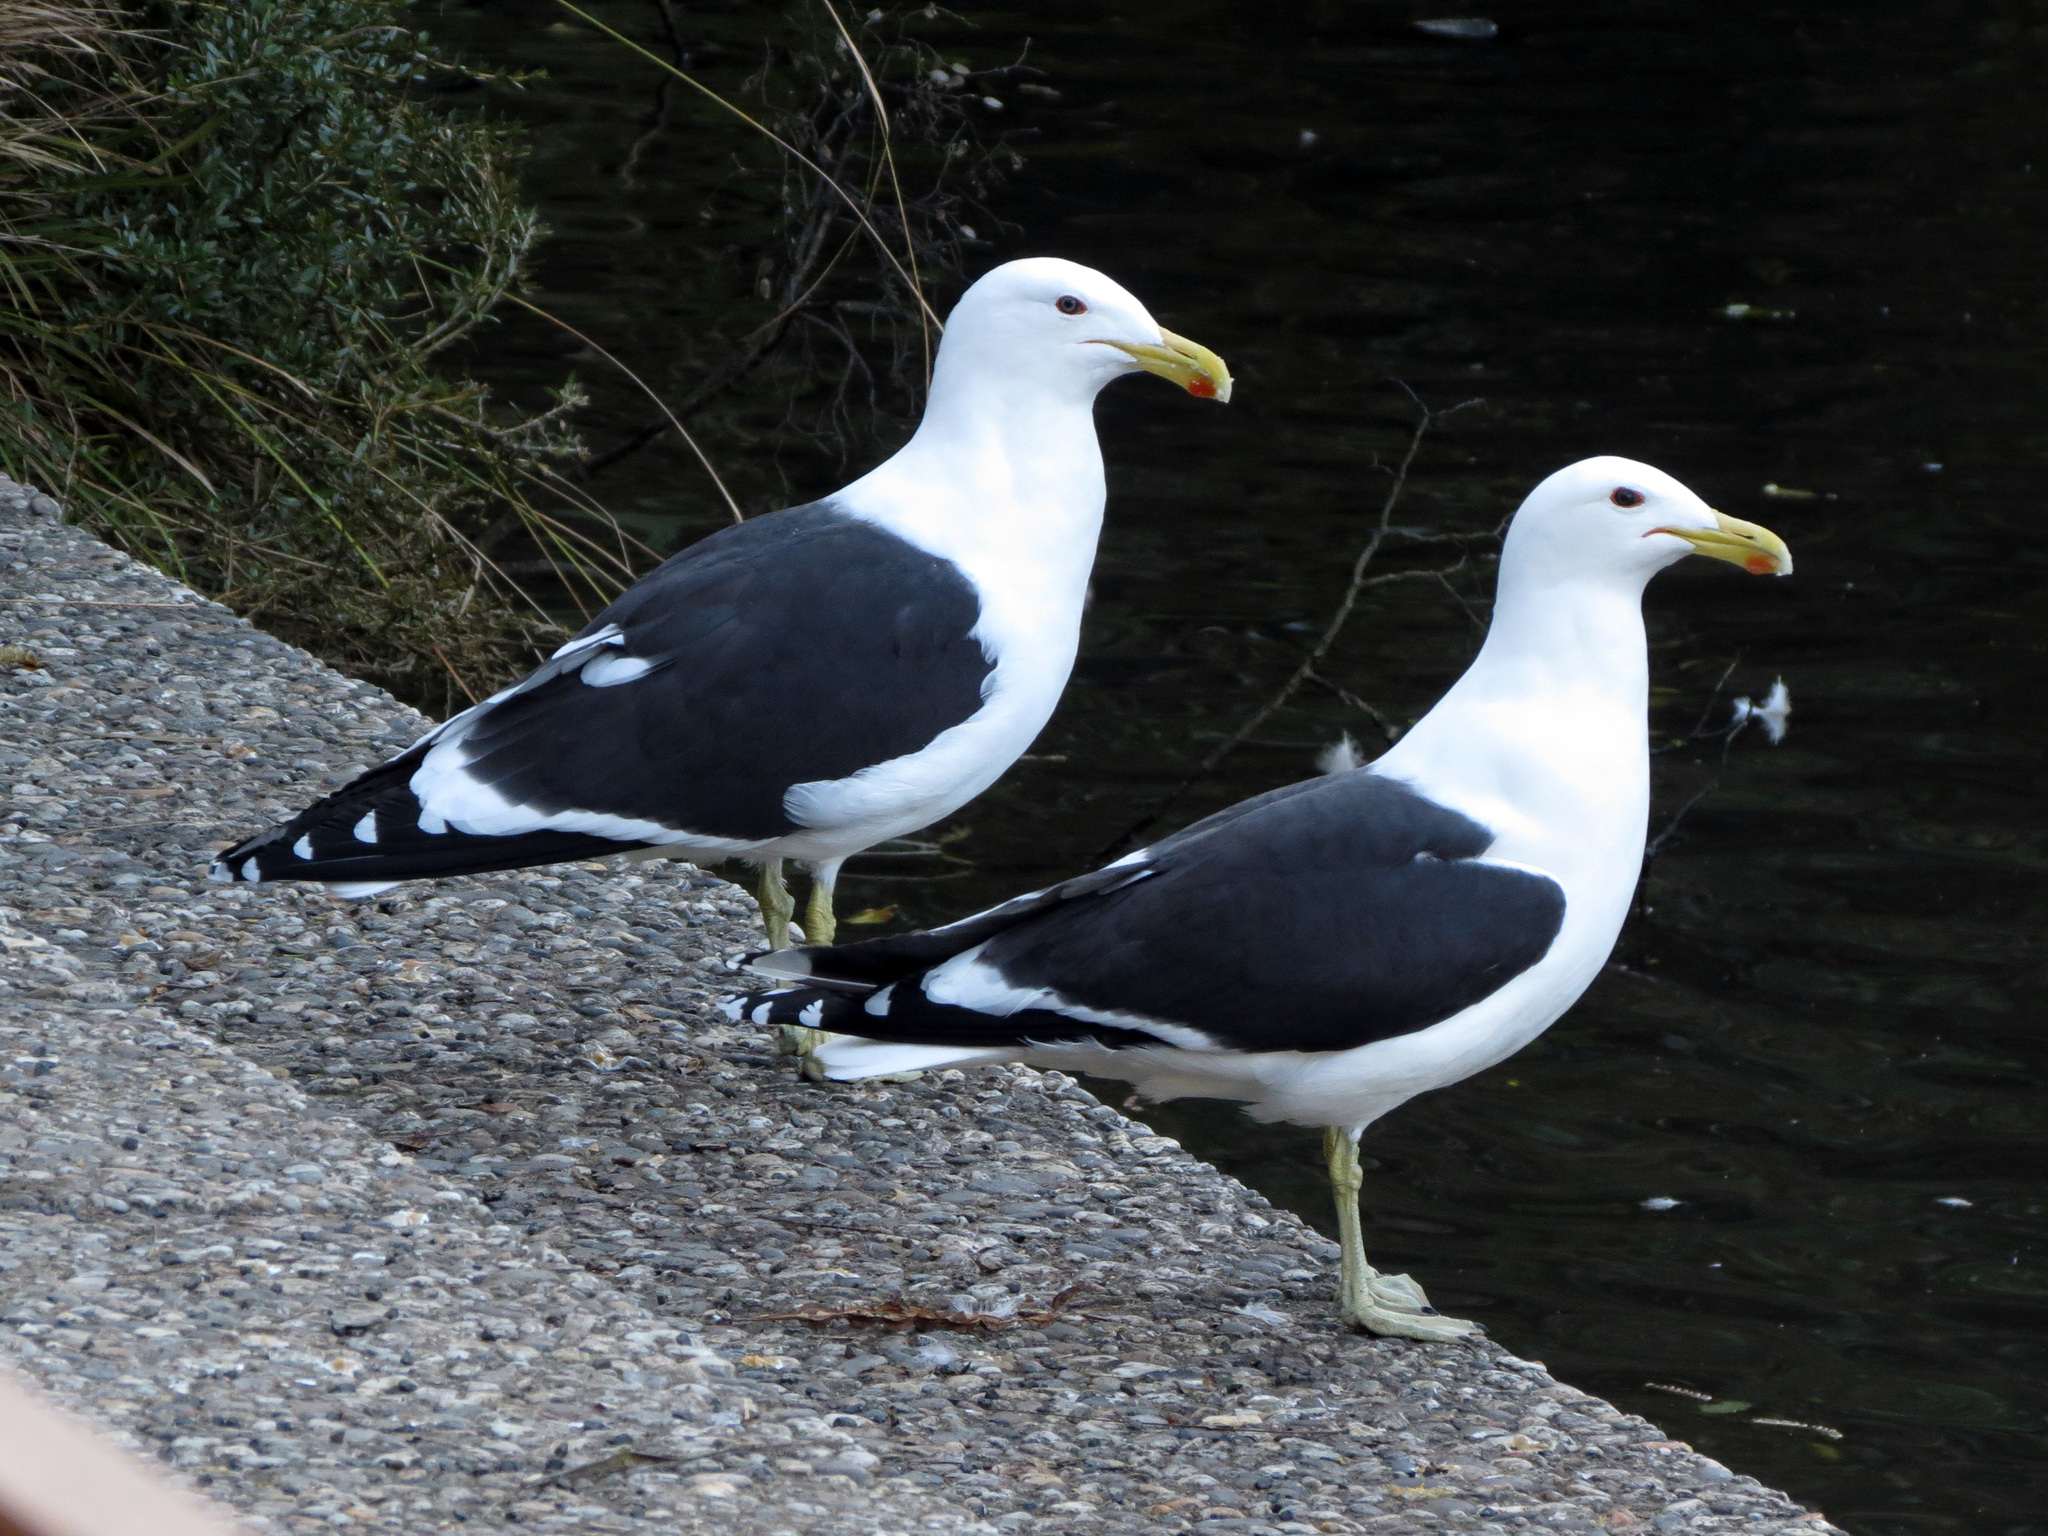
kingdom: Animalia
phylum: Chordata
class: Aves
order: Charadriiformes
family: Laridae
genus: Larus
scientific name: Larus dominicanus
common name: Kelp gull
